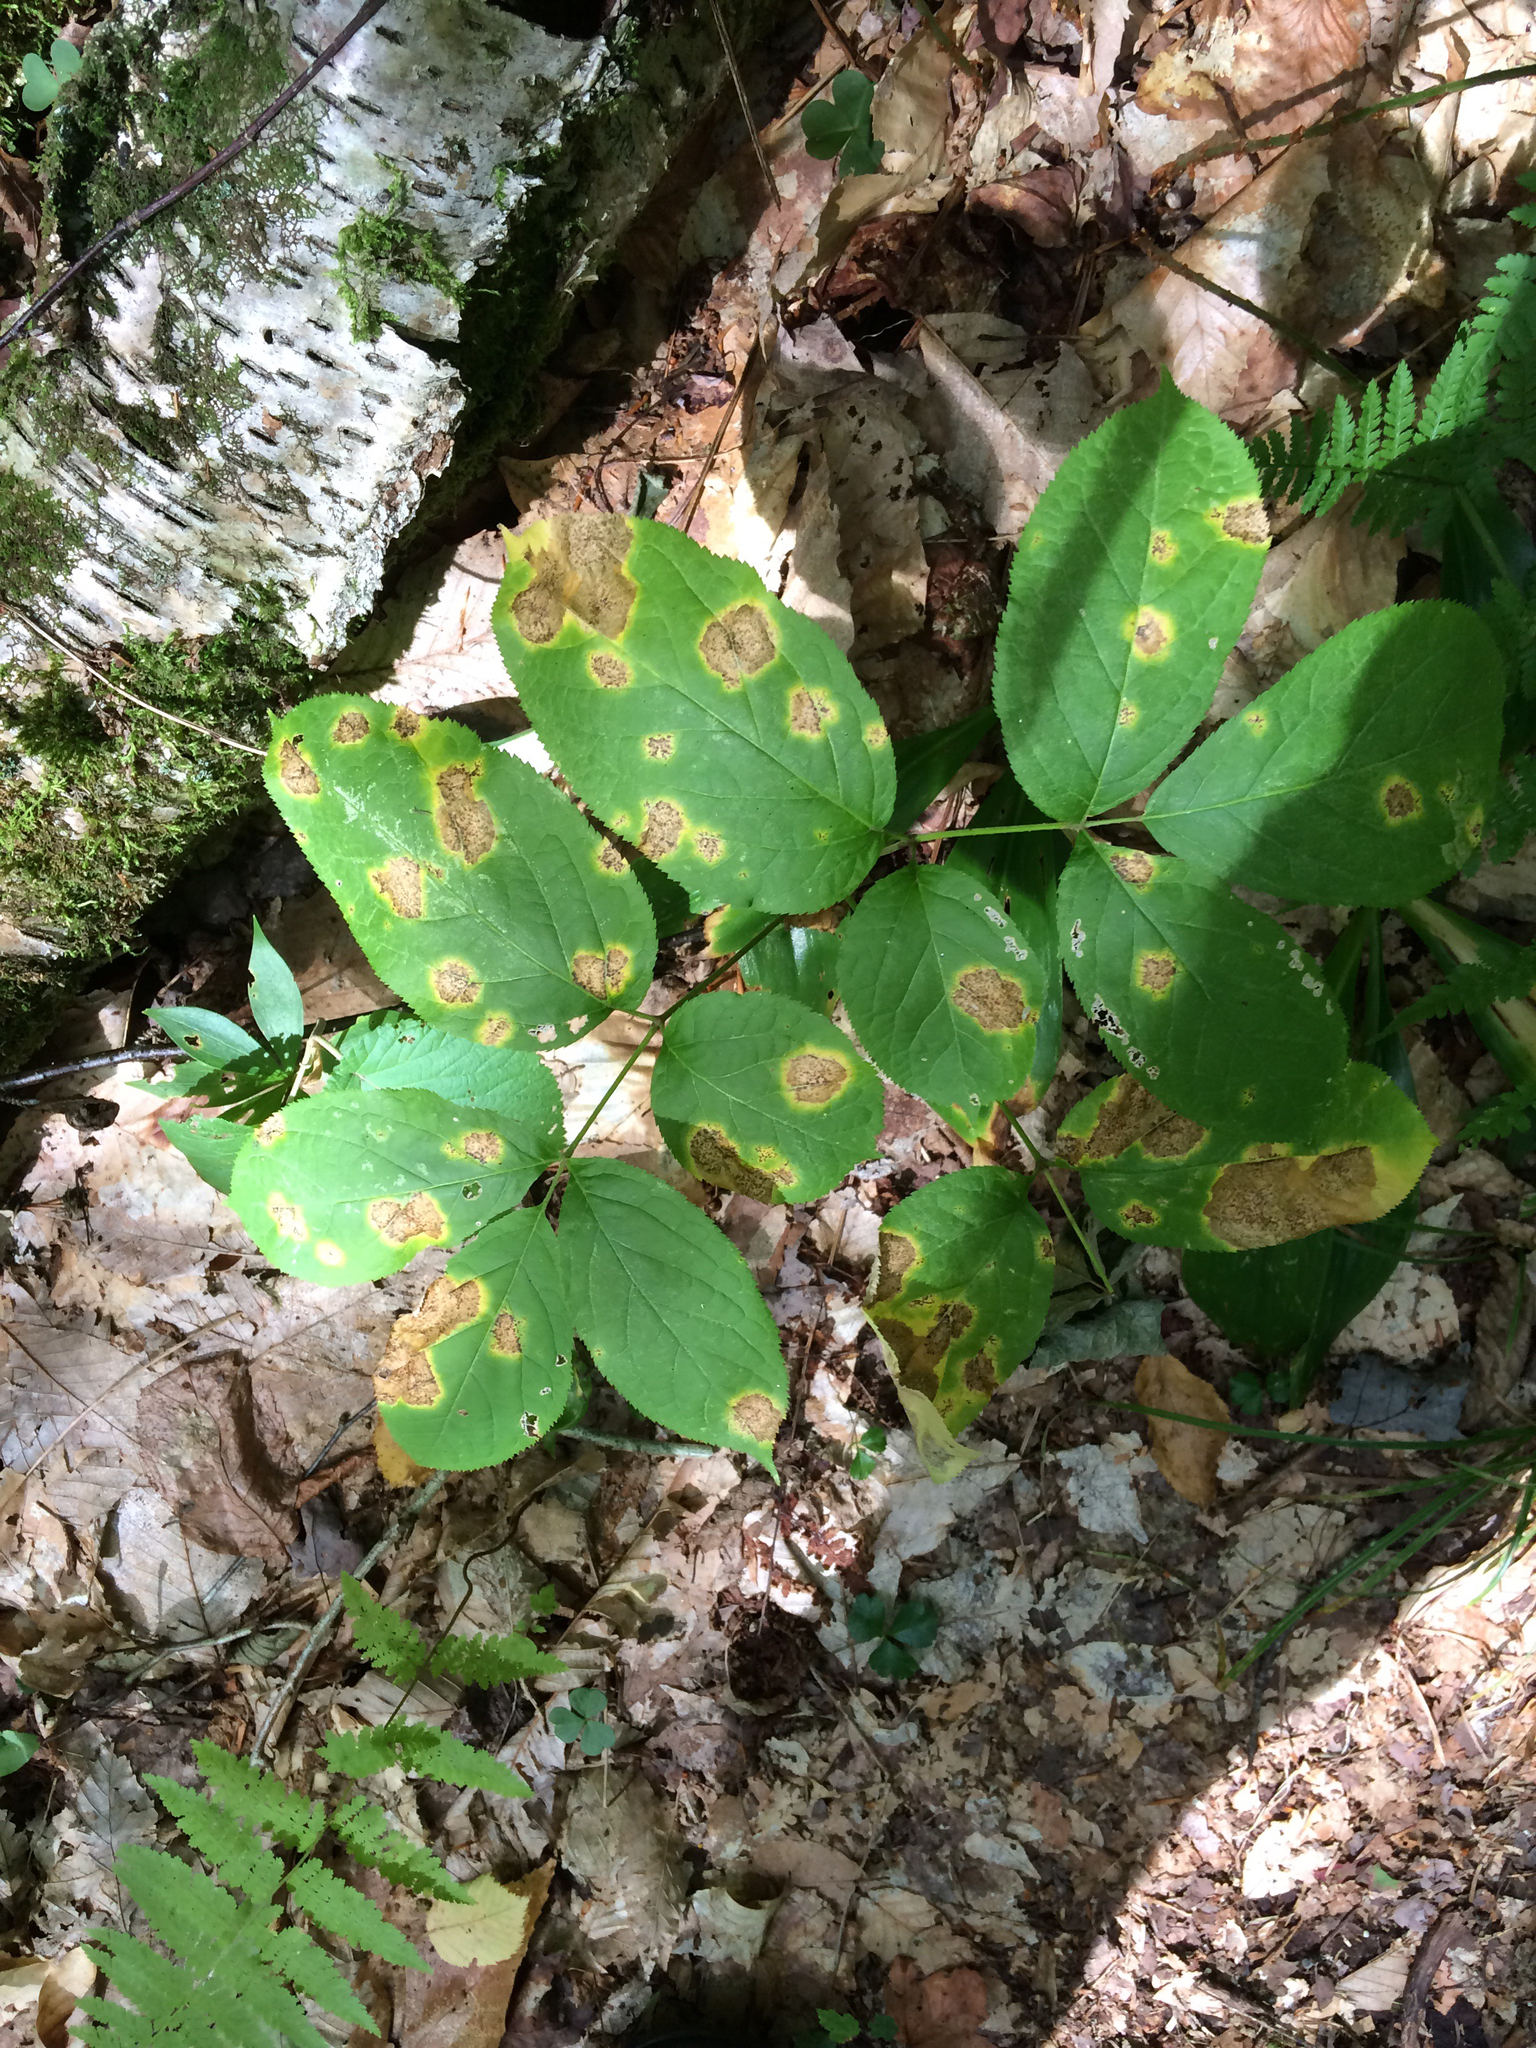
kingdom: Plantae
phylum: Tracheophyta
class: Magnoliopsida
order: Apiales
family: Araliaceae
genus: Aralia
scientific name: Aralia nudicaulis
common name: Wild sarsaparilla
